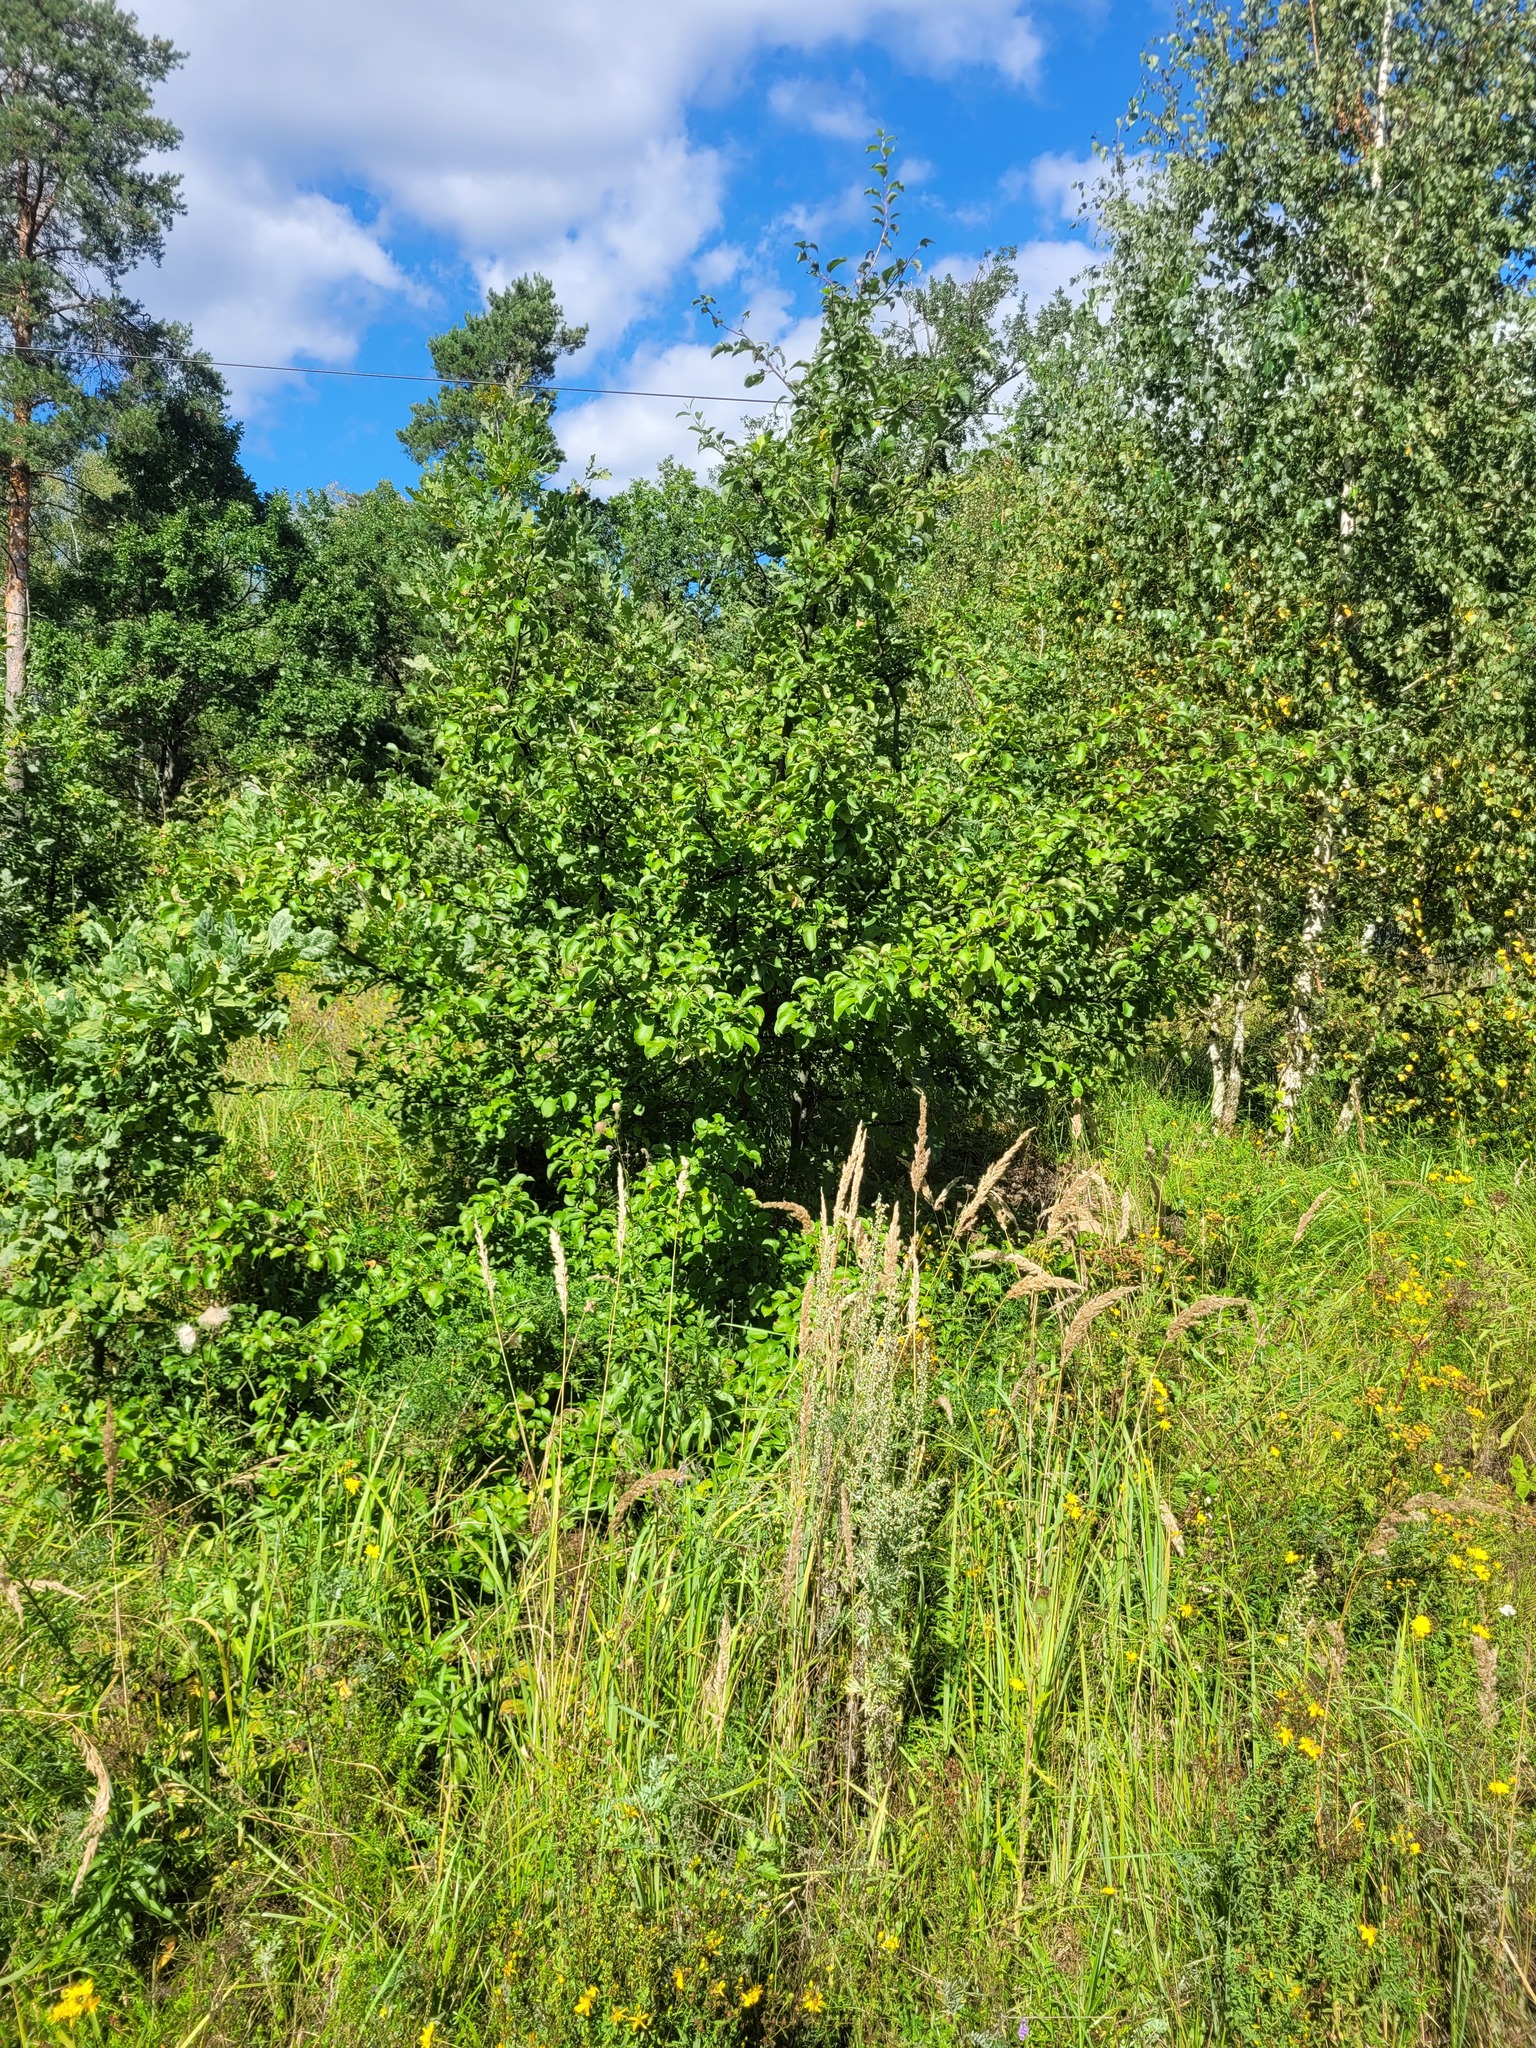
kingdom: Plantae
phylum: Tracheophyta
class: Magnoliopsida
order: Rosales
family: Rosaceae
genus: Malus
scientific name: Malus domestica
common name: Apple
